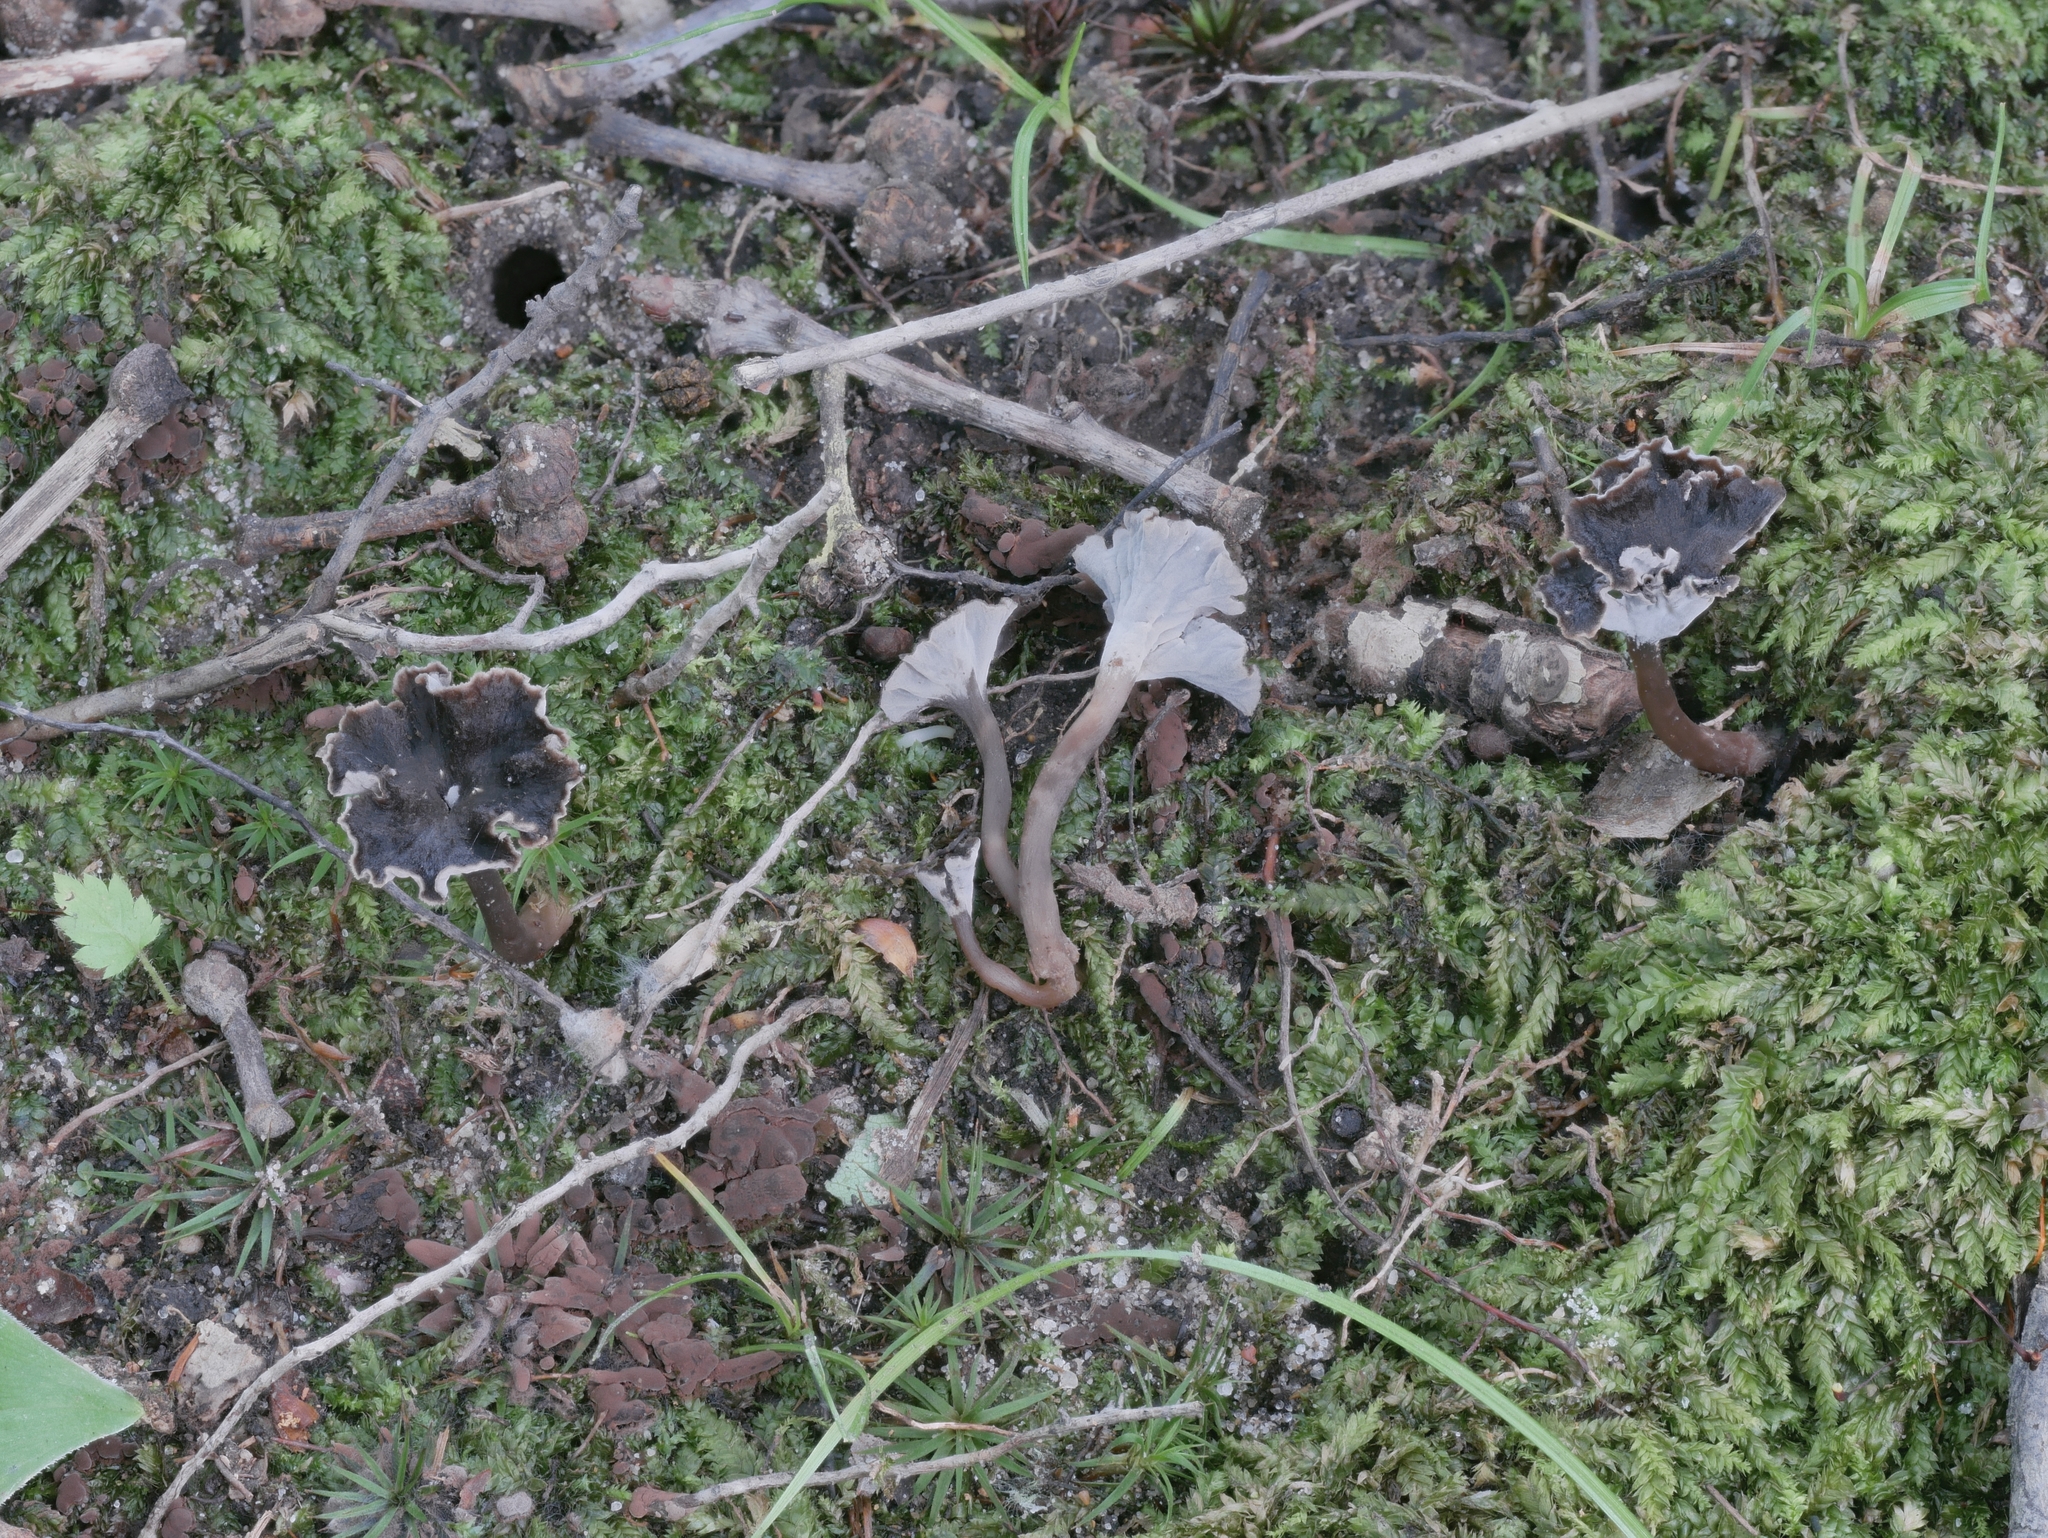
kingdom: Fungi
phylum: Basidiomycota
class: Agaricomycetes
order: Cantharellales
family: Hydnaceae
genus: Pseudocraterellus
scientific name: Pseudocraterellus subundulatus
